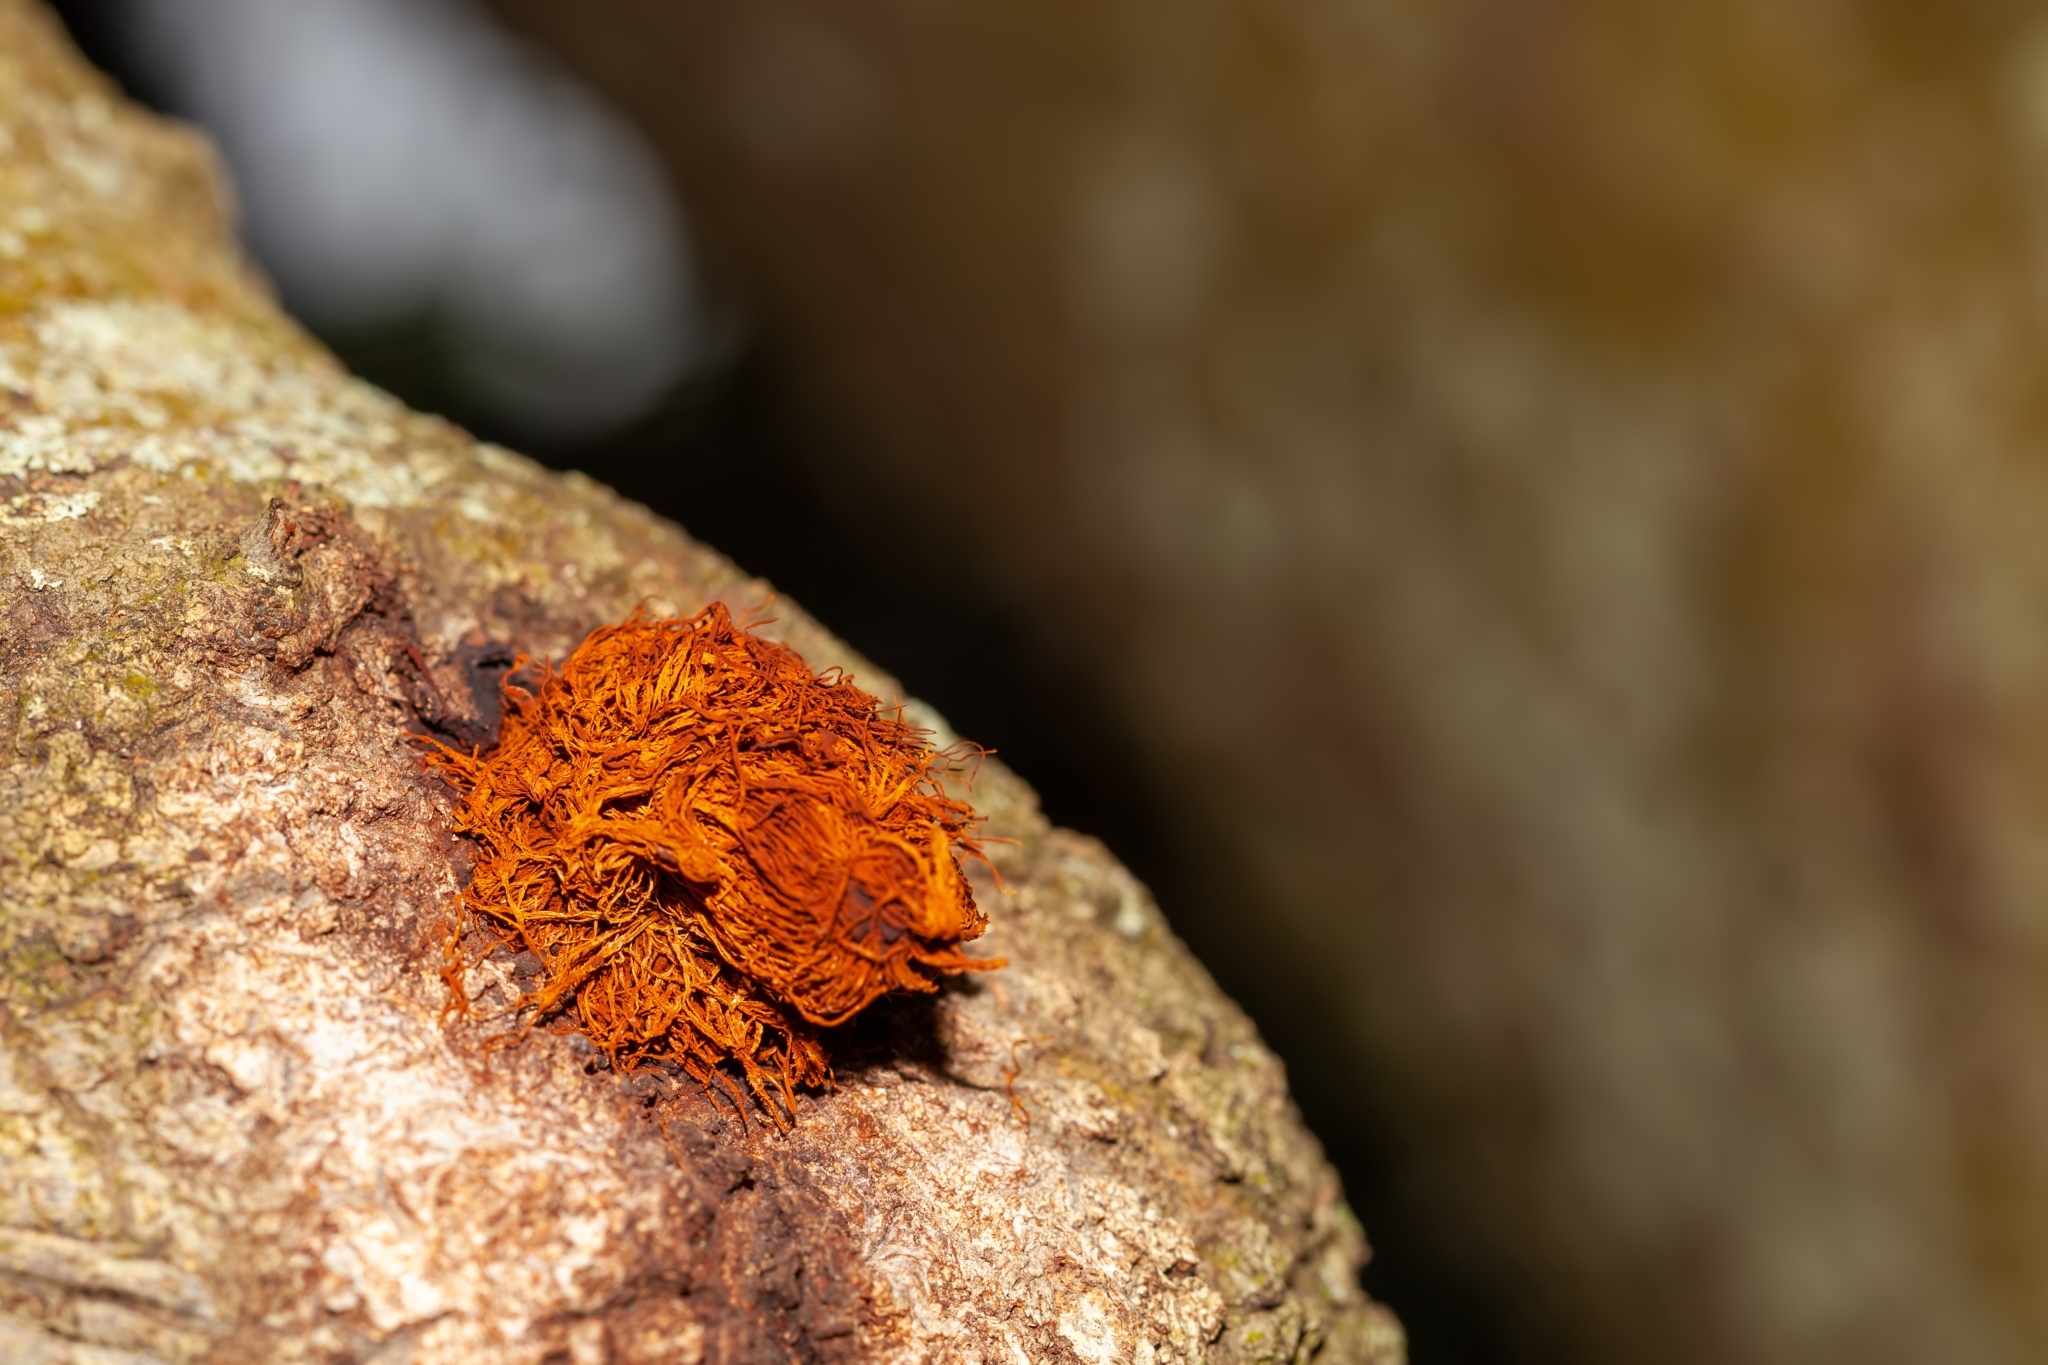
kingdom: Fungi
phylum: Basidiomycota
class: Agaricomycetes
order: Hymenochaetales
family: Hymenochaetaceae
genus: Inonotus
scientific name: Inonotus rickii
